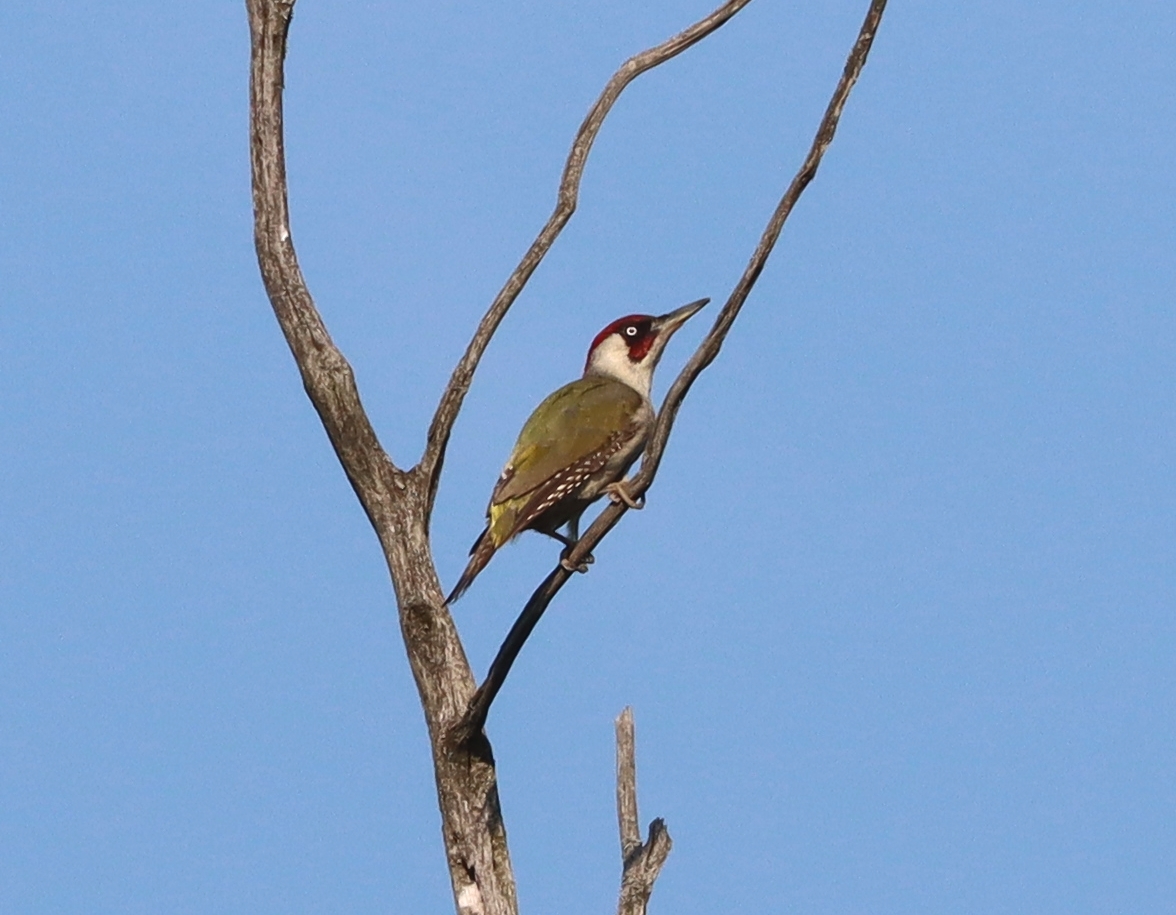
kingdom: Animalia
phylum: Chordata
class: Aves
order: Piciformes
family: Picidae
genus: Picus
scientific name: Picus viridis
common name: European green woodpecker
